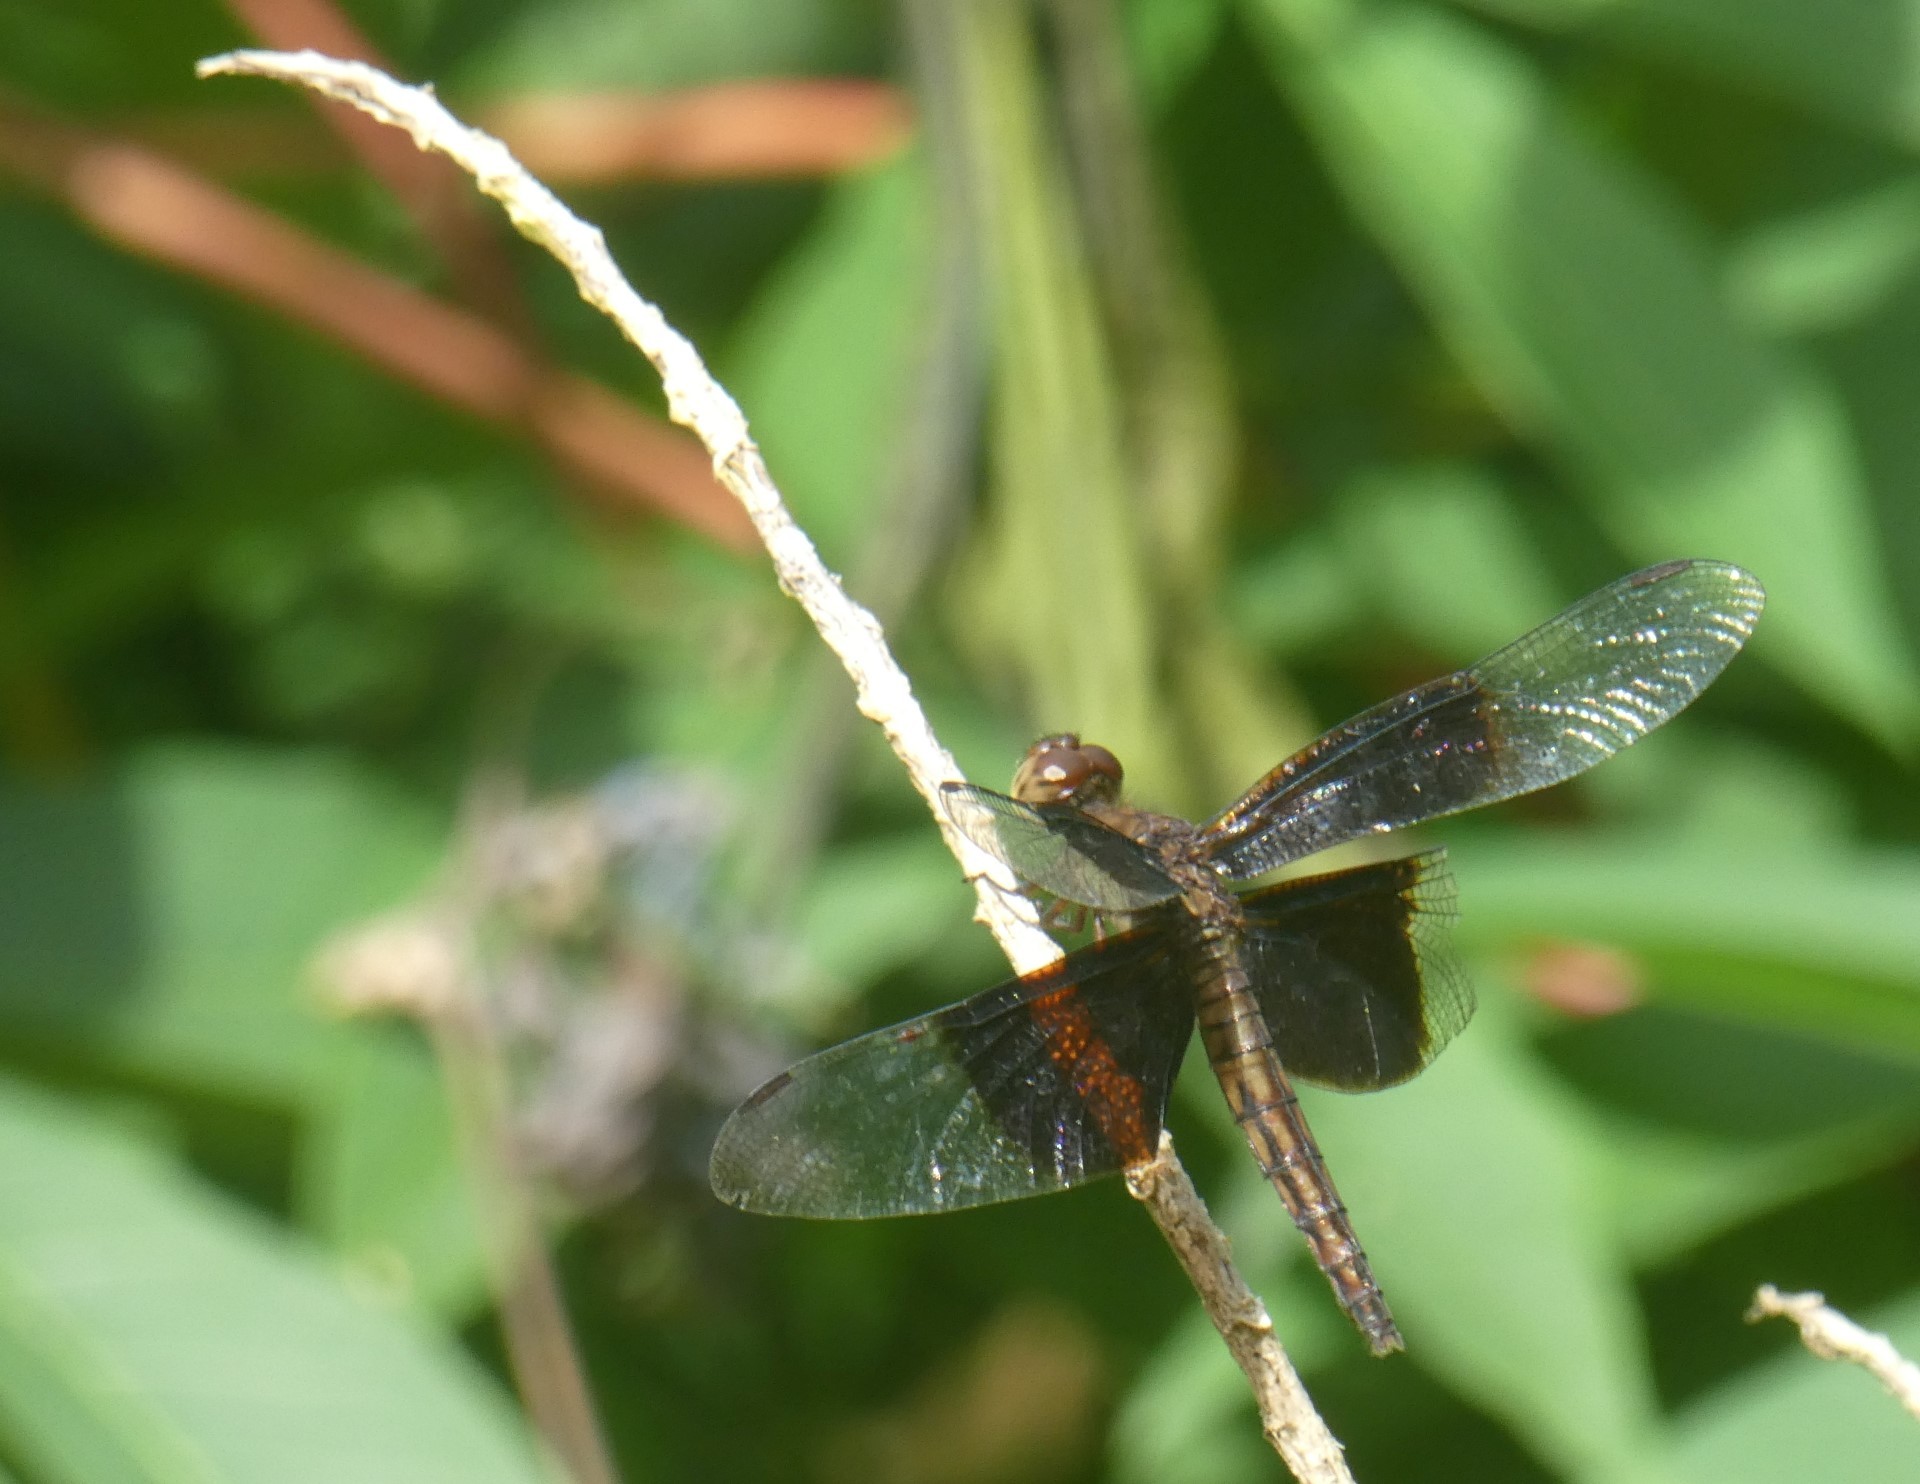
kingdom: Animalia
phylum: Arthropoda
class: Insecta
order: Odonata
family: Libellulidae
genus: Neurothemis
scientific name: Neurothemis decora
